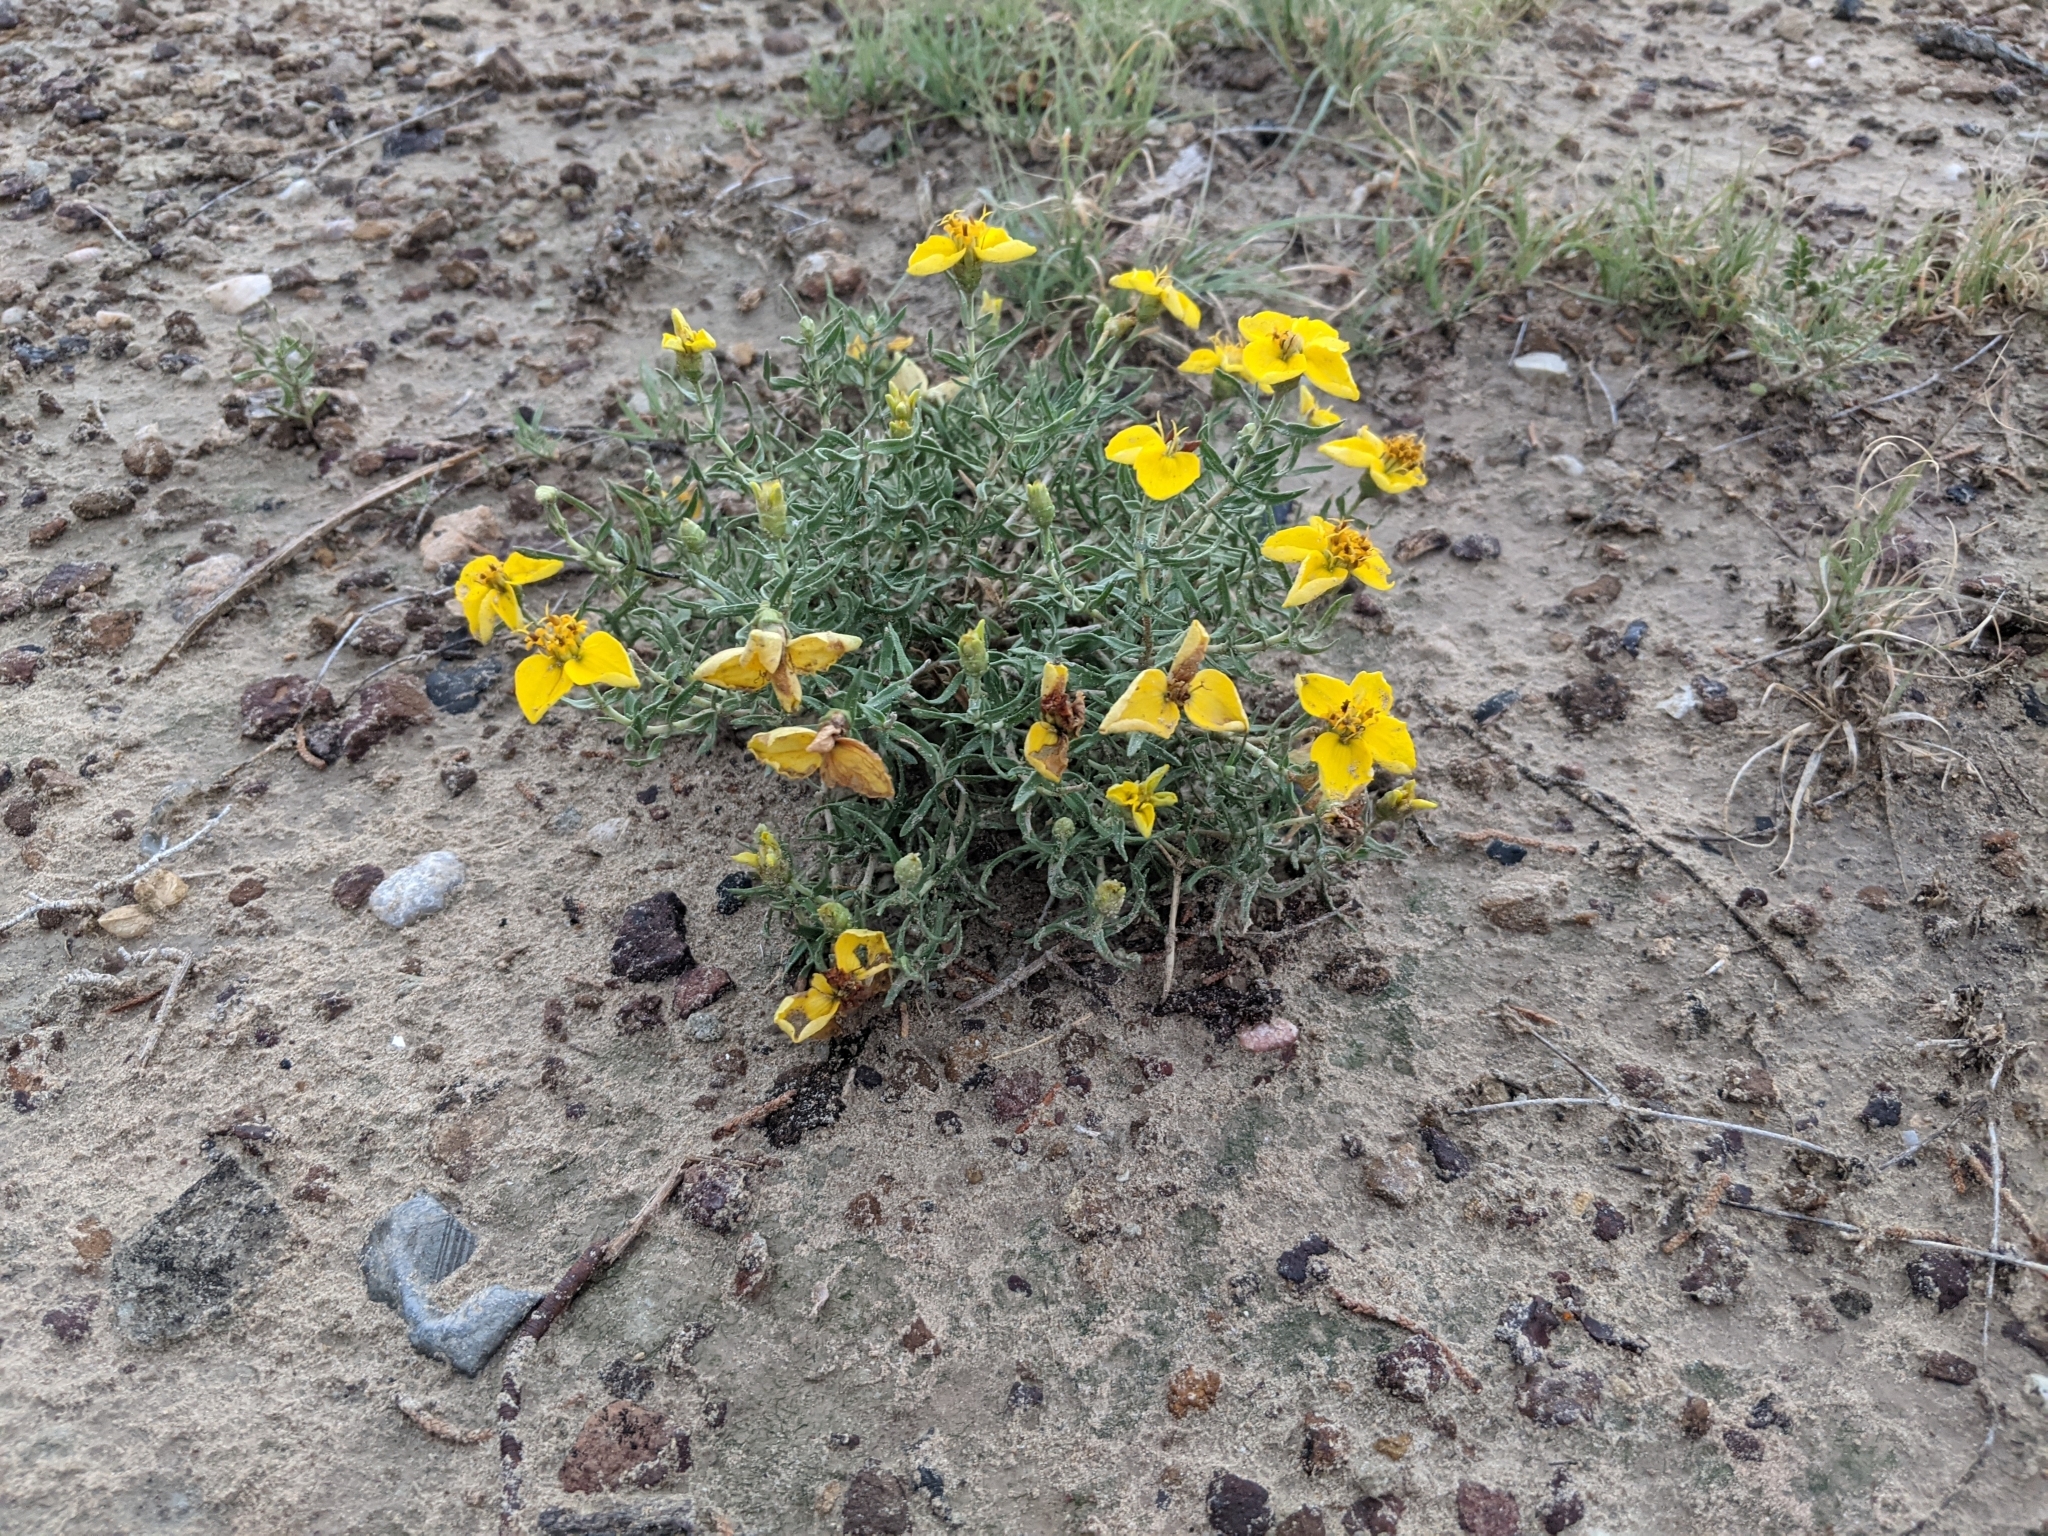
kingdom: Plantae
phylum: Tracheophyta
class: Magnoliopsida
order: Asterales
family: Asteraceae
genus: Zinnia
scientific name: Zinnia grandiflora
